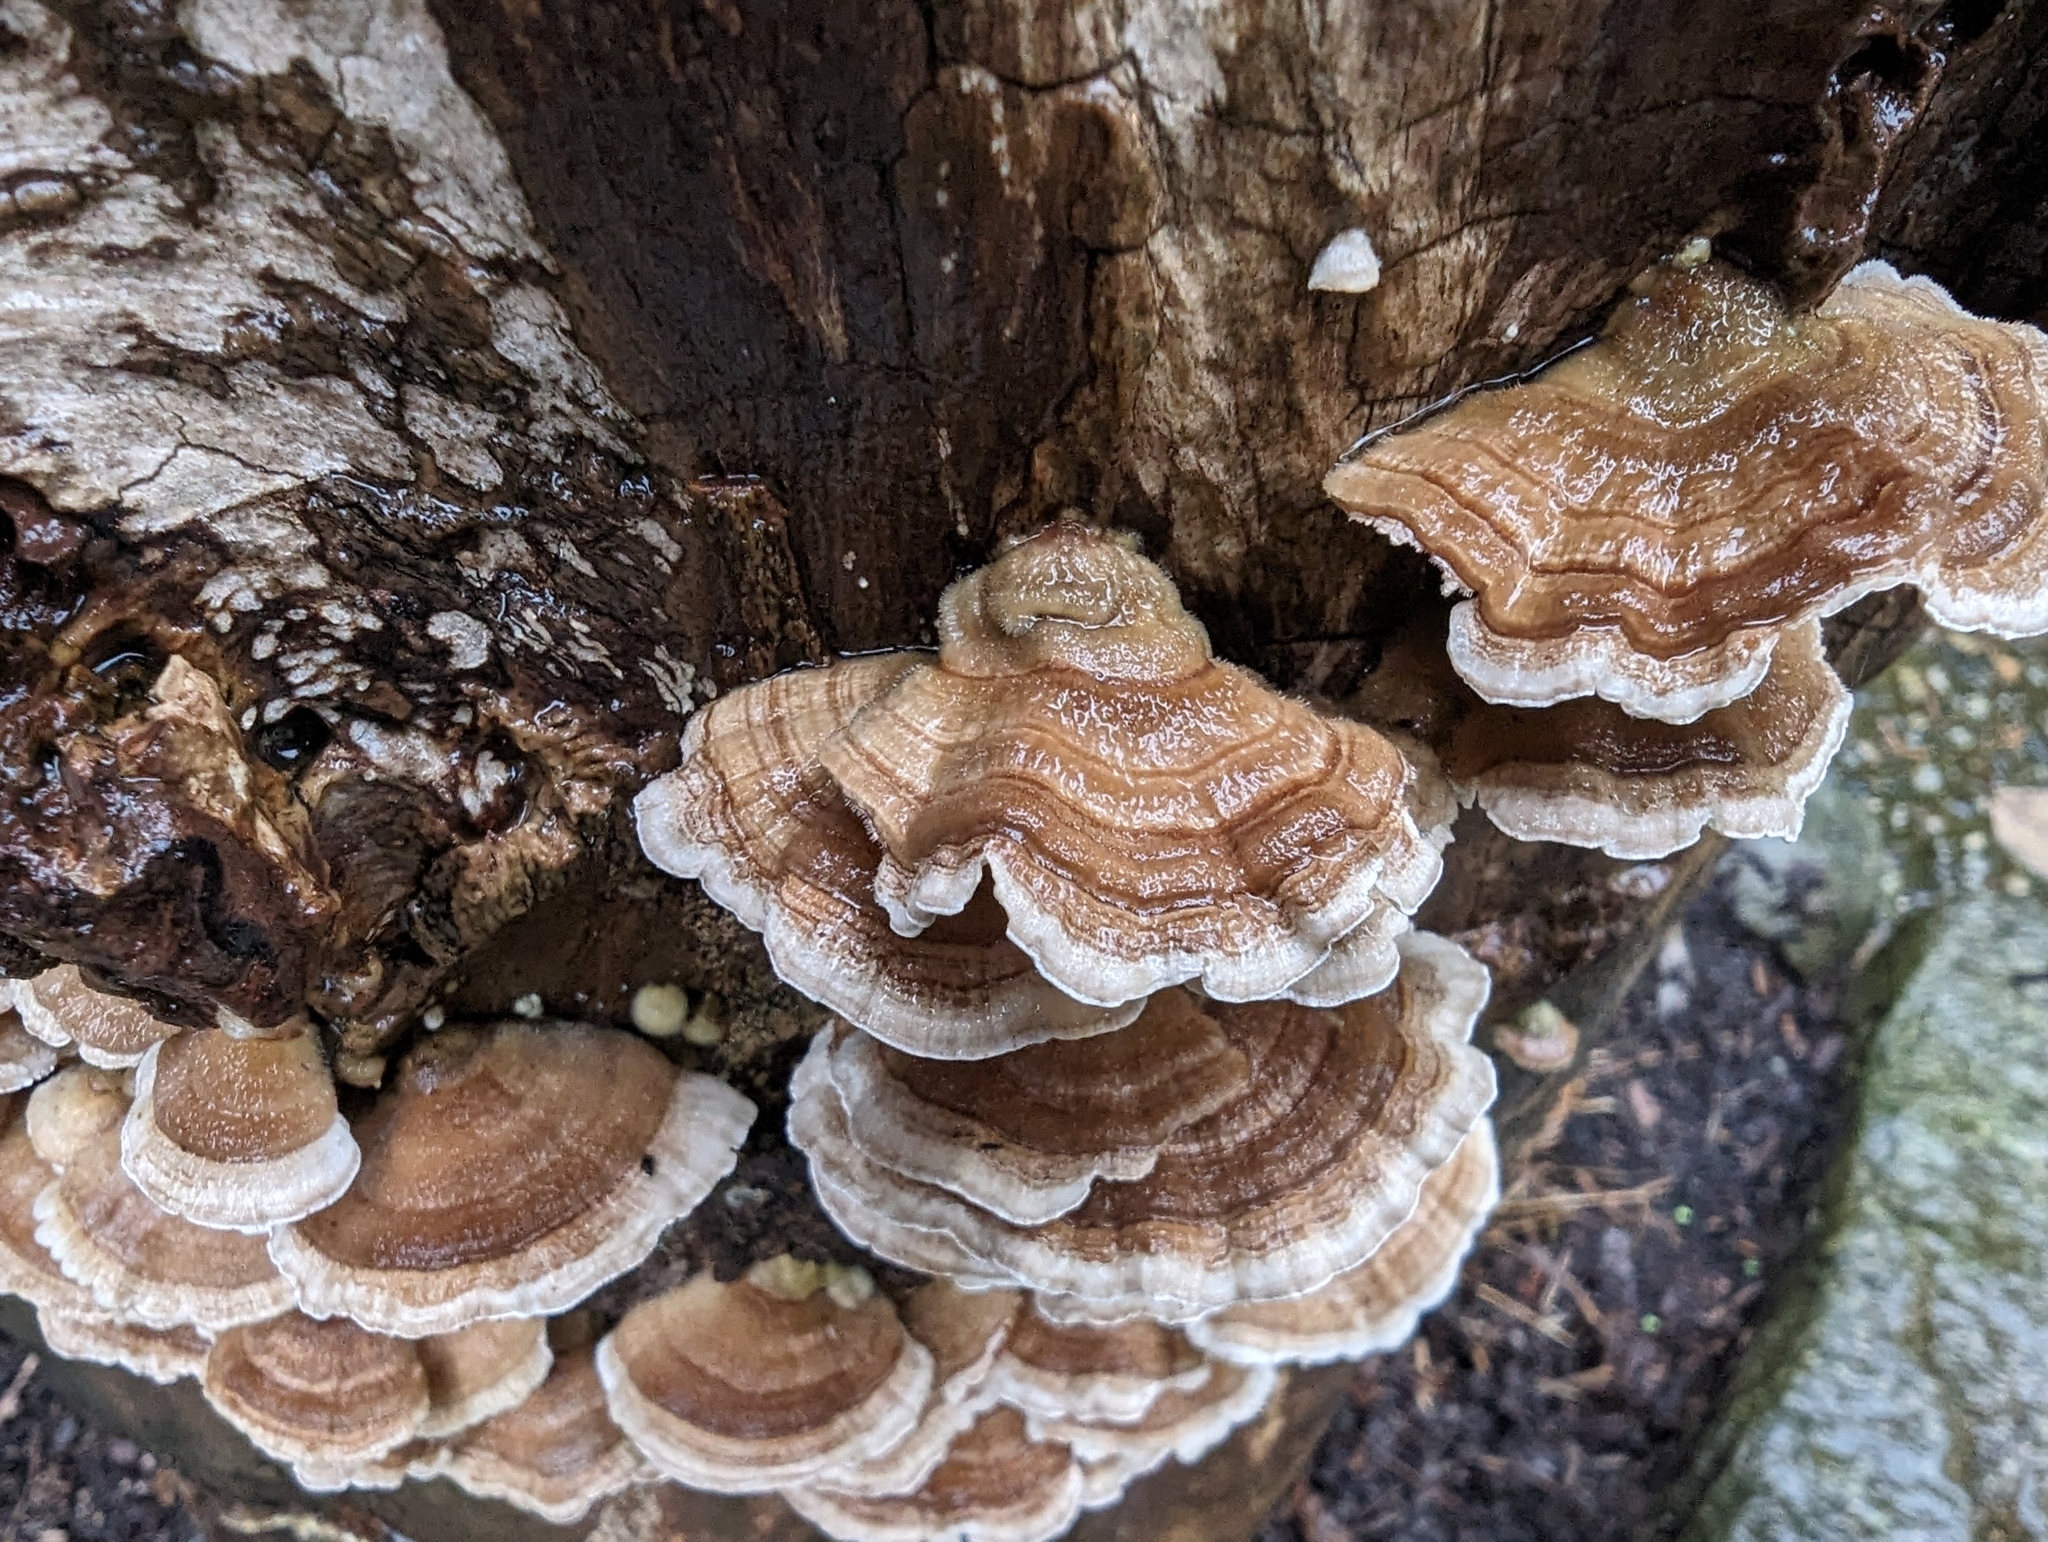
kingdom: Fungi
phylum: Basidiomycota
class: Agaricomycetes
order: Polyporales
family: Polyporaceae
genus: Trametes
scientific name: Trametes ochracea
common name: Ochre bracket
